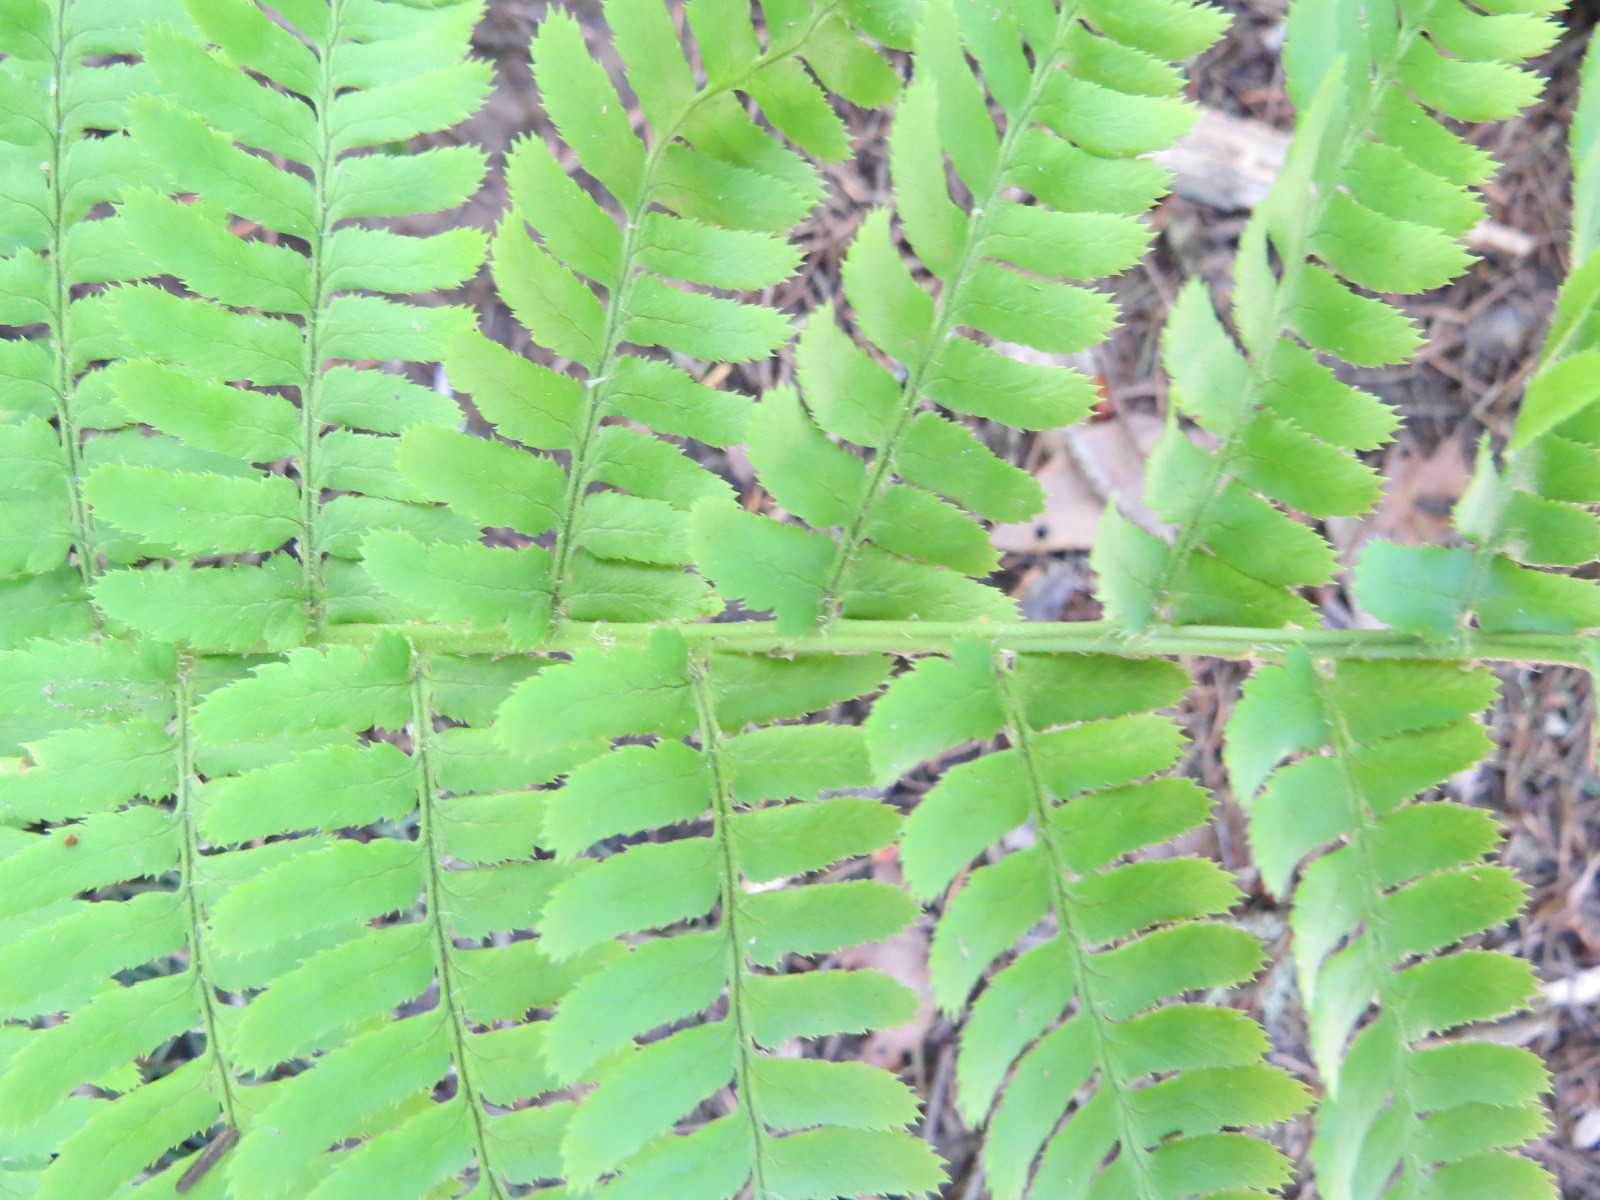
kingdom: Plantae
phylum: Tracheophyta
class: Polypodiopsida
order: Polypodiales
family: Dryopteridaceae
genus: Dryopteris
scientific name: Dryopteris arguta
